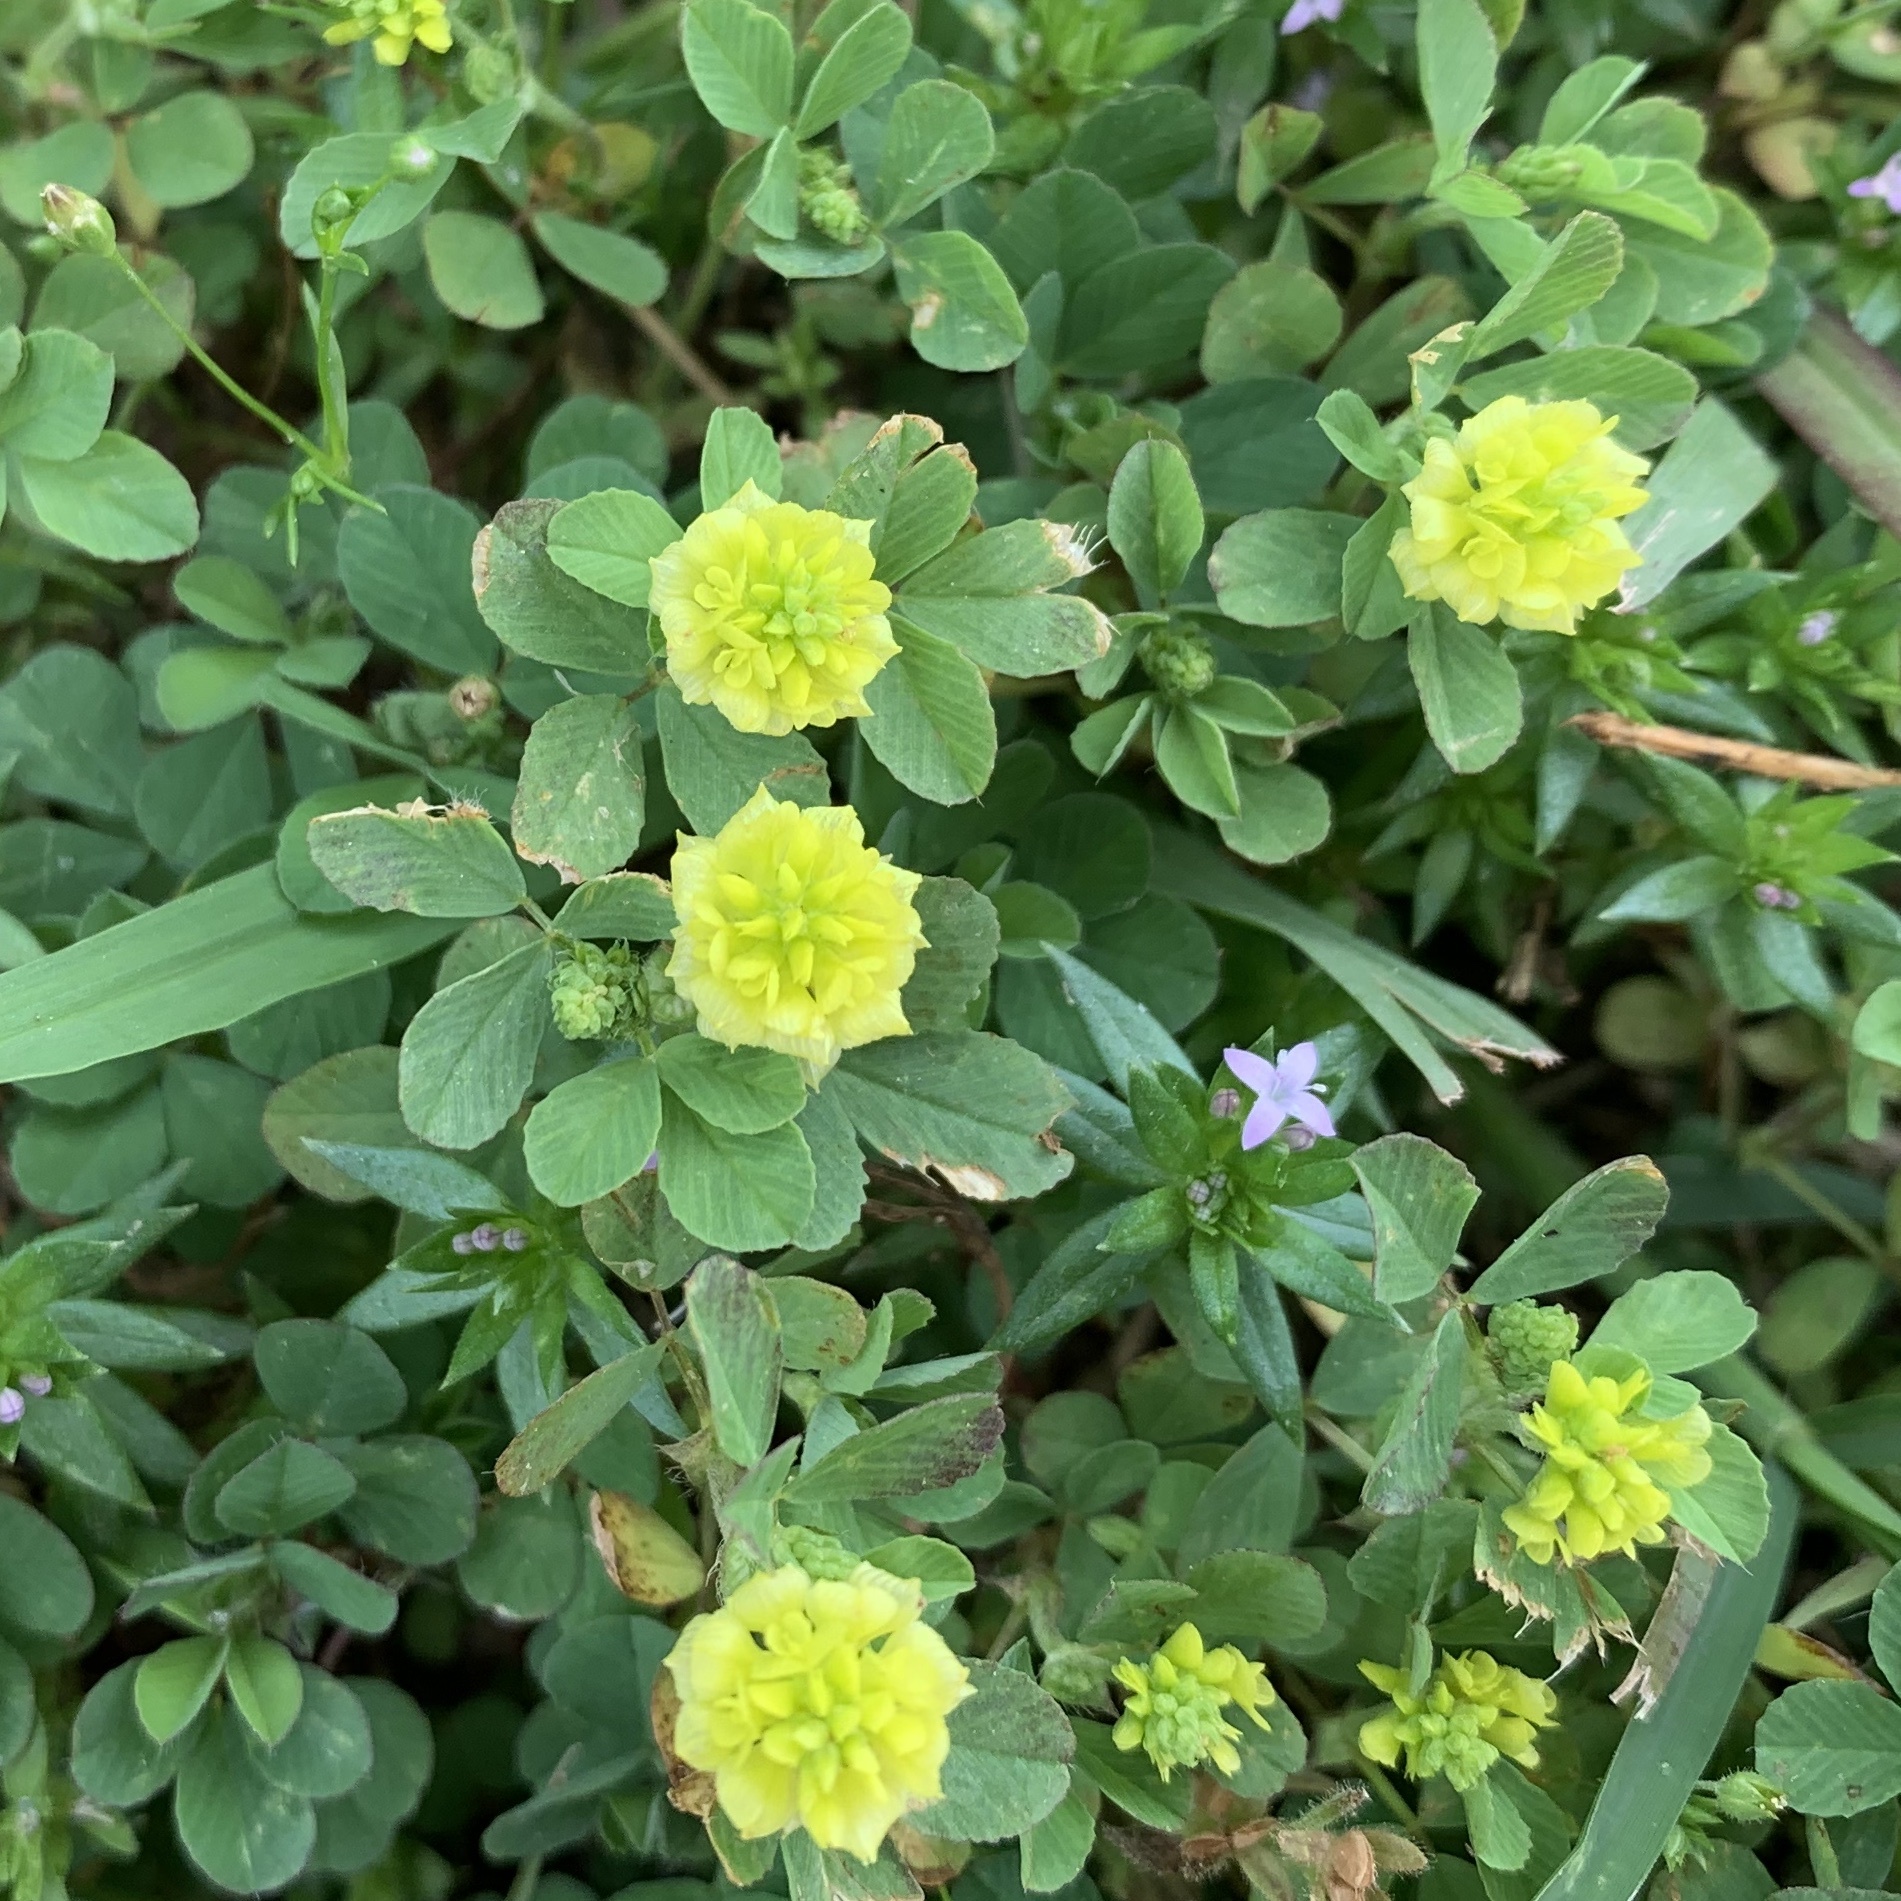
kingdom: Plantae
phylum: Tracheophyta
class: Magnoliopsida
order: Fabales
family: Fabaceae
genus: Trifolium
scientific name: Trifolium campestre
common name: Field clover
